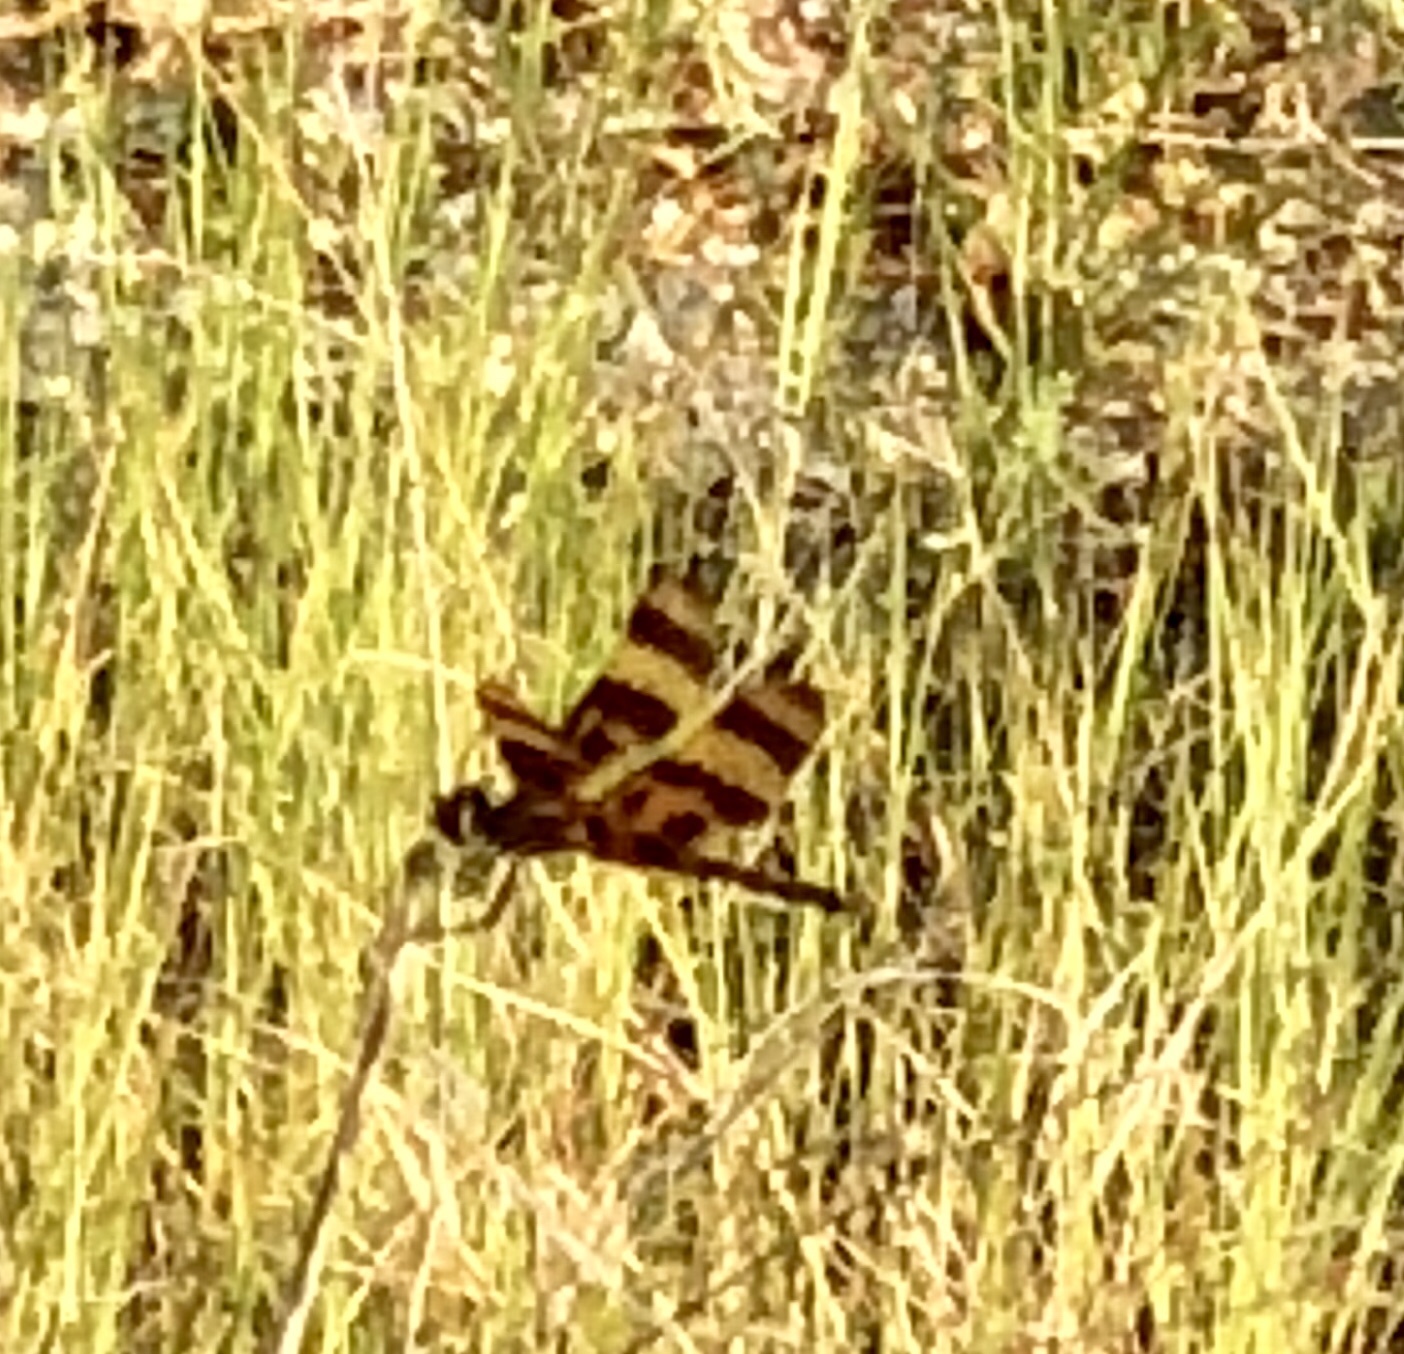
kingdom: Animalia
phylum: Arthropoda
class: Insecta
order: Odonata
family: Libellulidae
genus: Celithemis
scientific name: Celithemis eponina
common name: Halloween pennant
